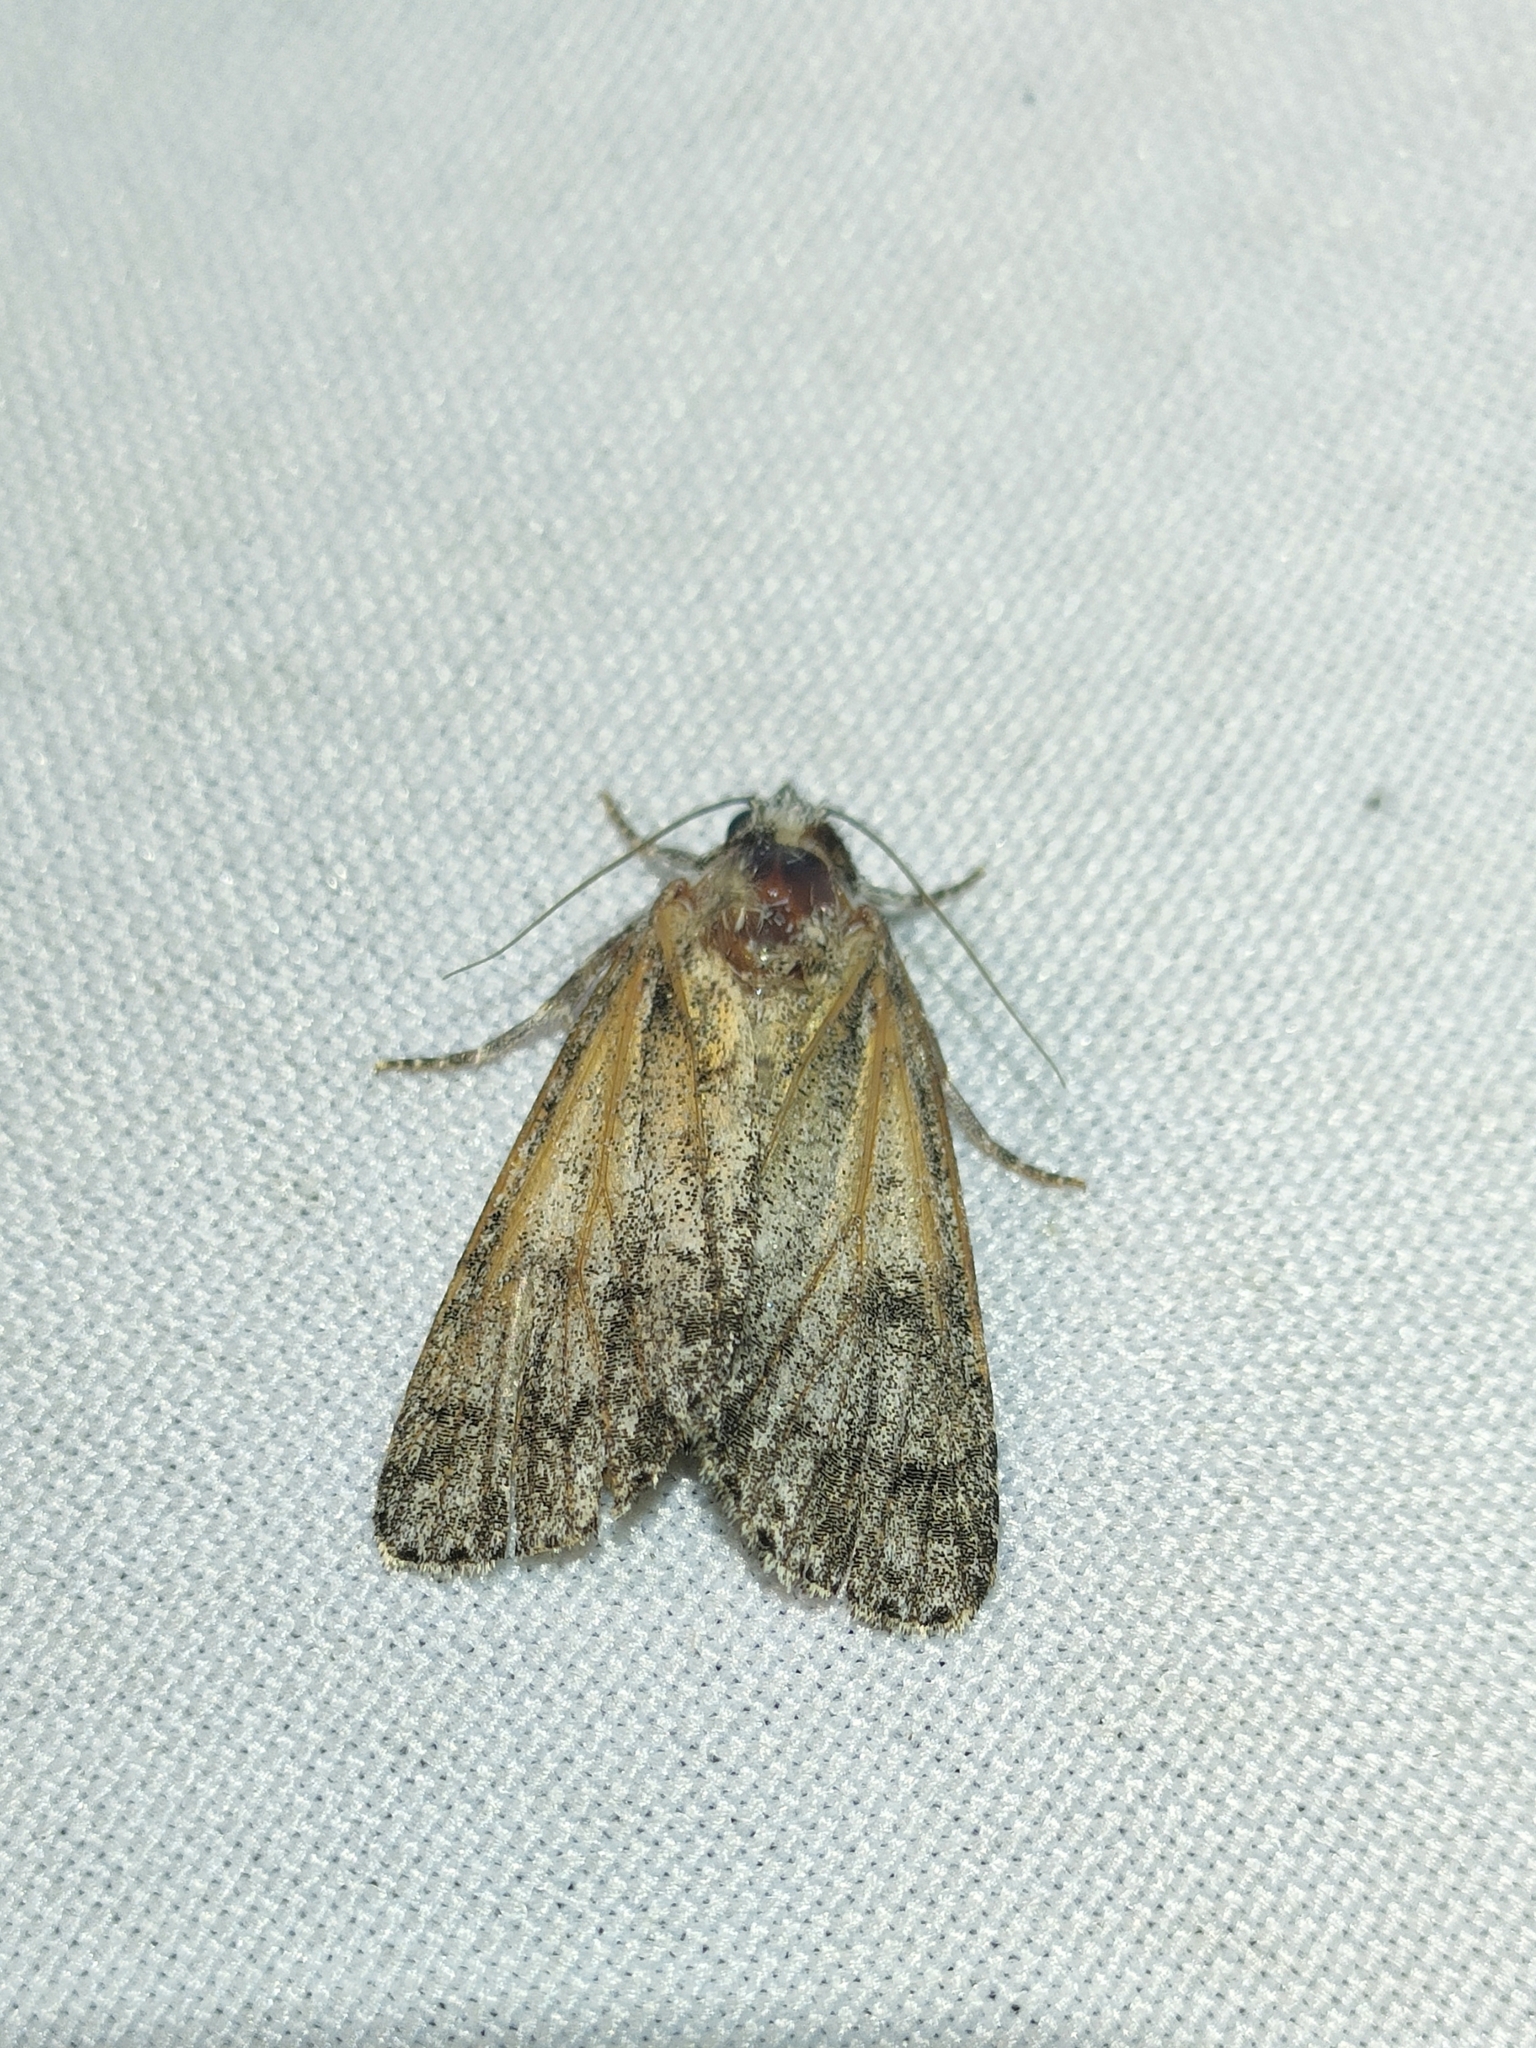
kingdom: Animalia
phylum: Arthropoda
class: Insecta
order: Lepidoptera
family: Noctuidae
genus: Acronicta
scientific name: Acronicta rumicis
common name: Knot grass
